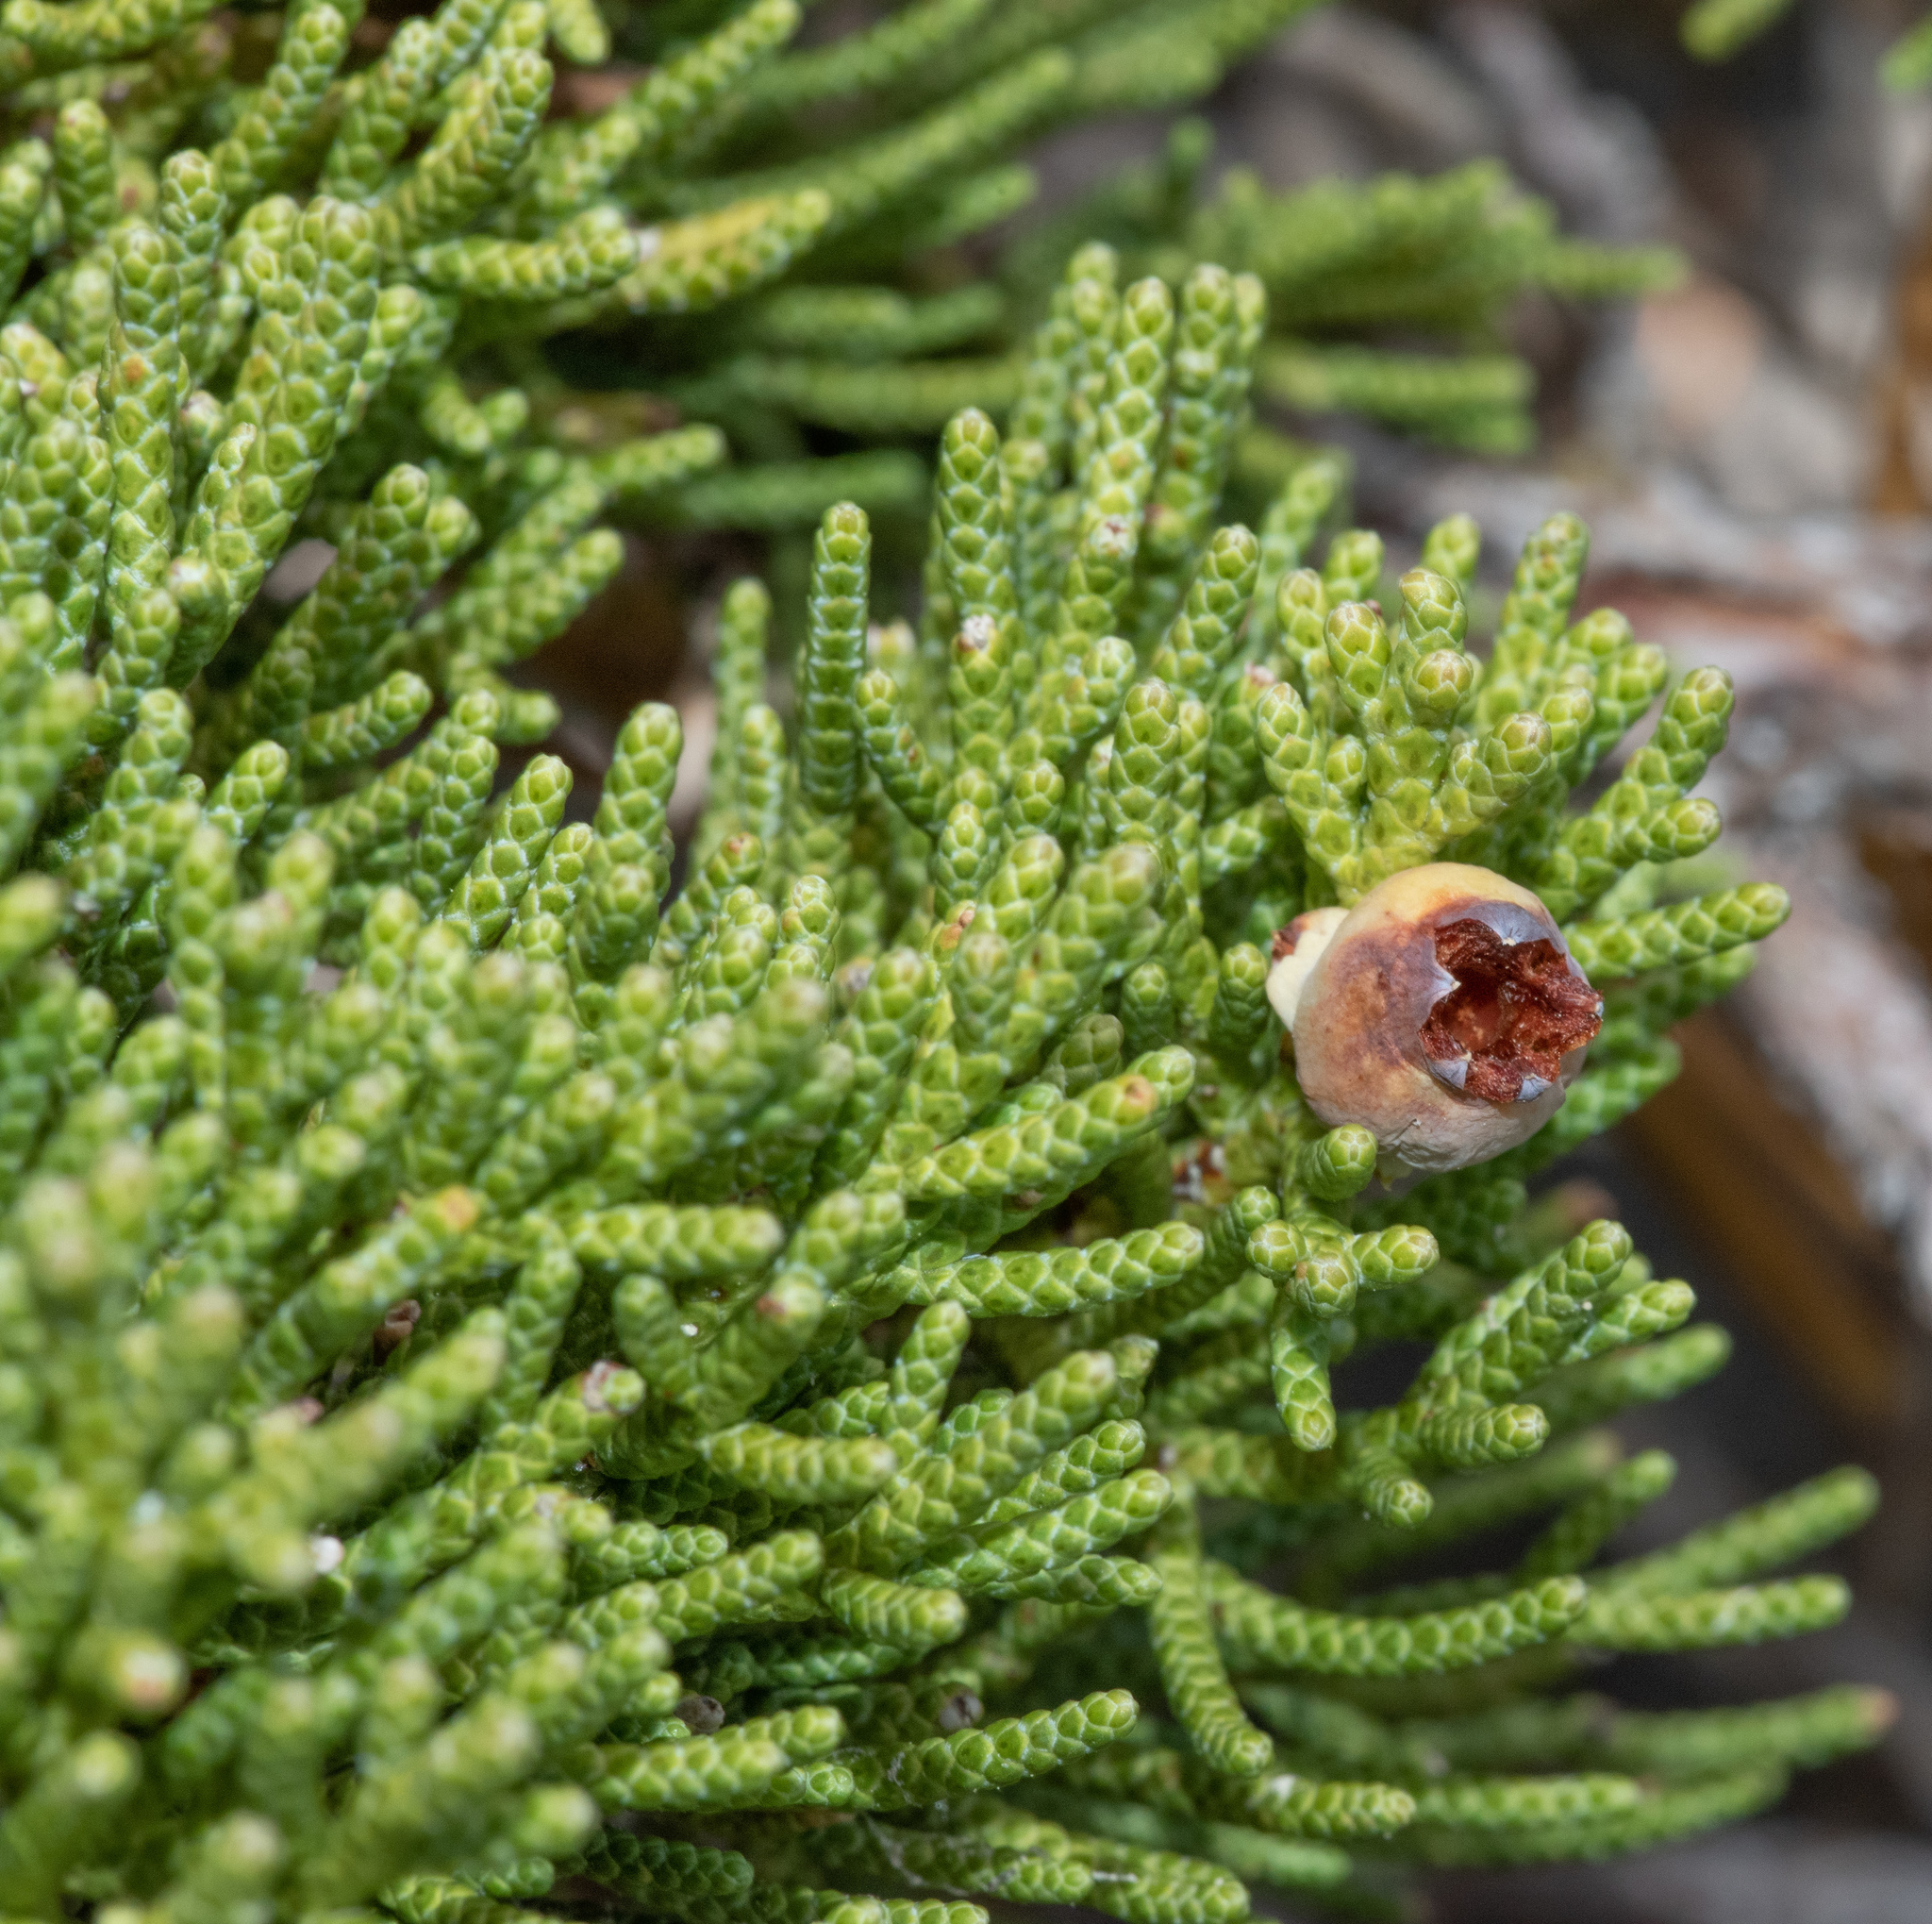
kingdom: Plantae
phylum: Tracheophyta
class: Pinopsida
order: Pinales
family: Cupressaceae
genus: Juniperus
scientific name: Juniperus occidentalis
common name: Western juniper
